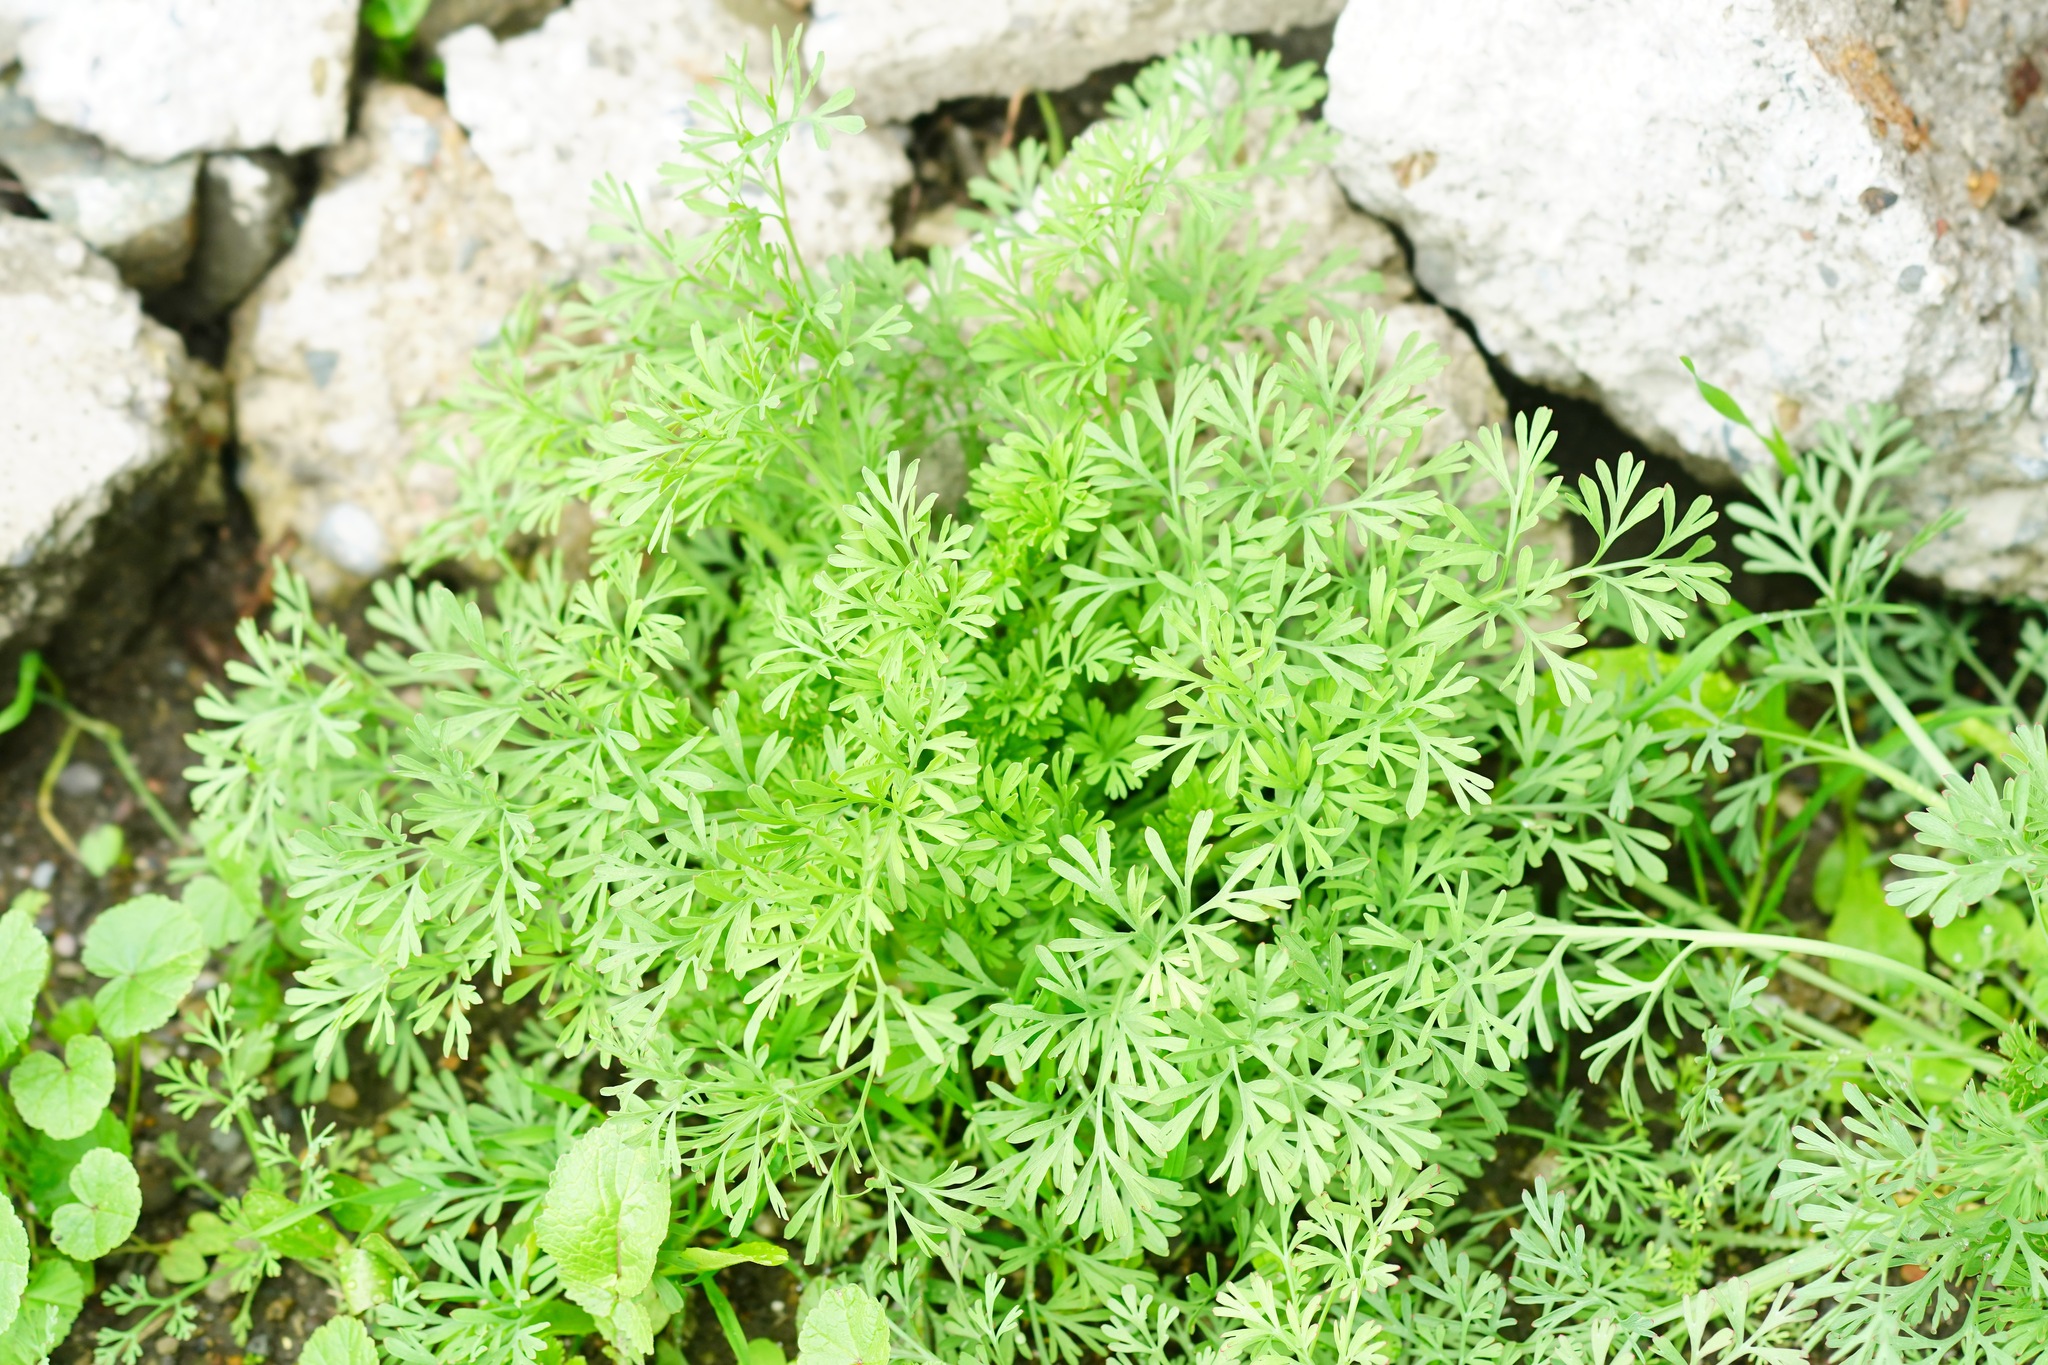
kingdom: Plantae
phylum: Tracheophyta
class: Magnoliopsida
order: Ranunculales
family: Papaveraceae
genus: Eschscholzia
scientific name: Eschscholzia californica
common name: California poppy
